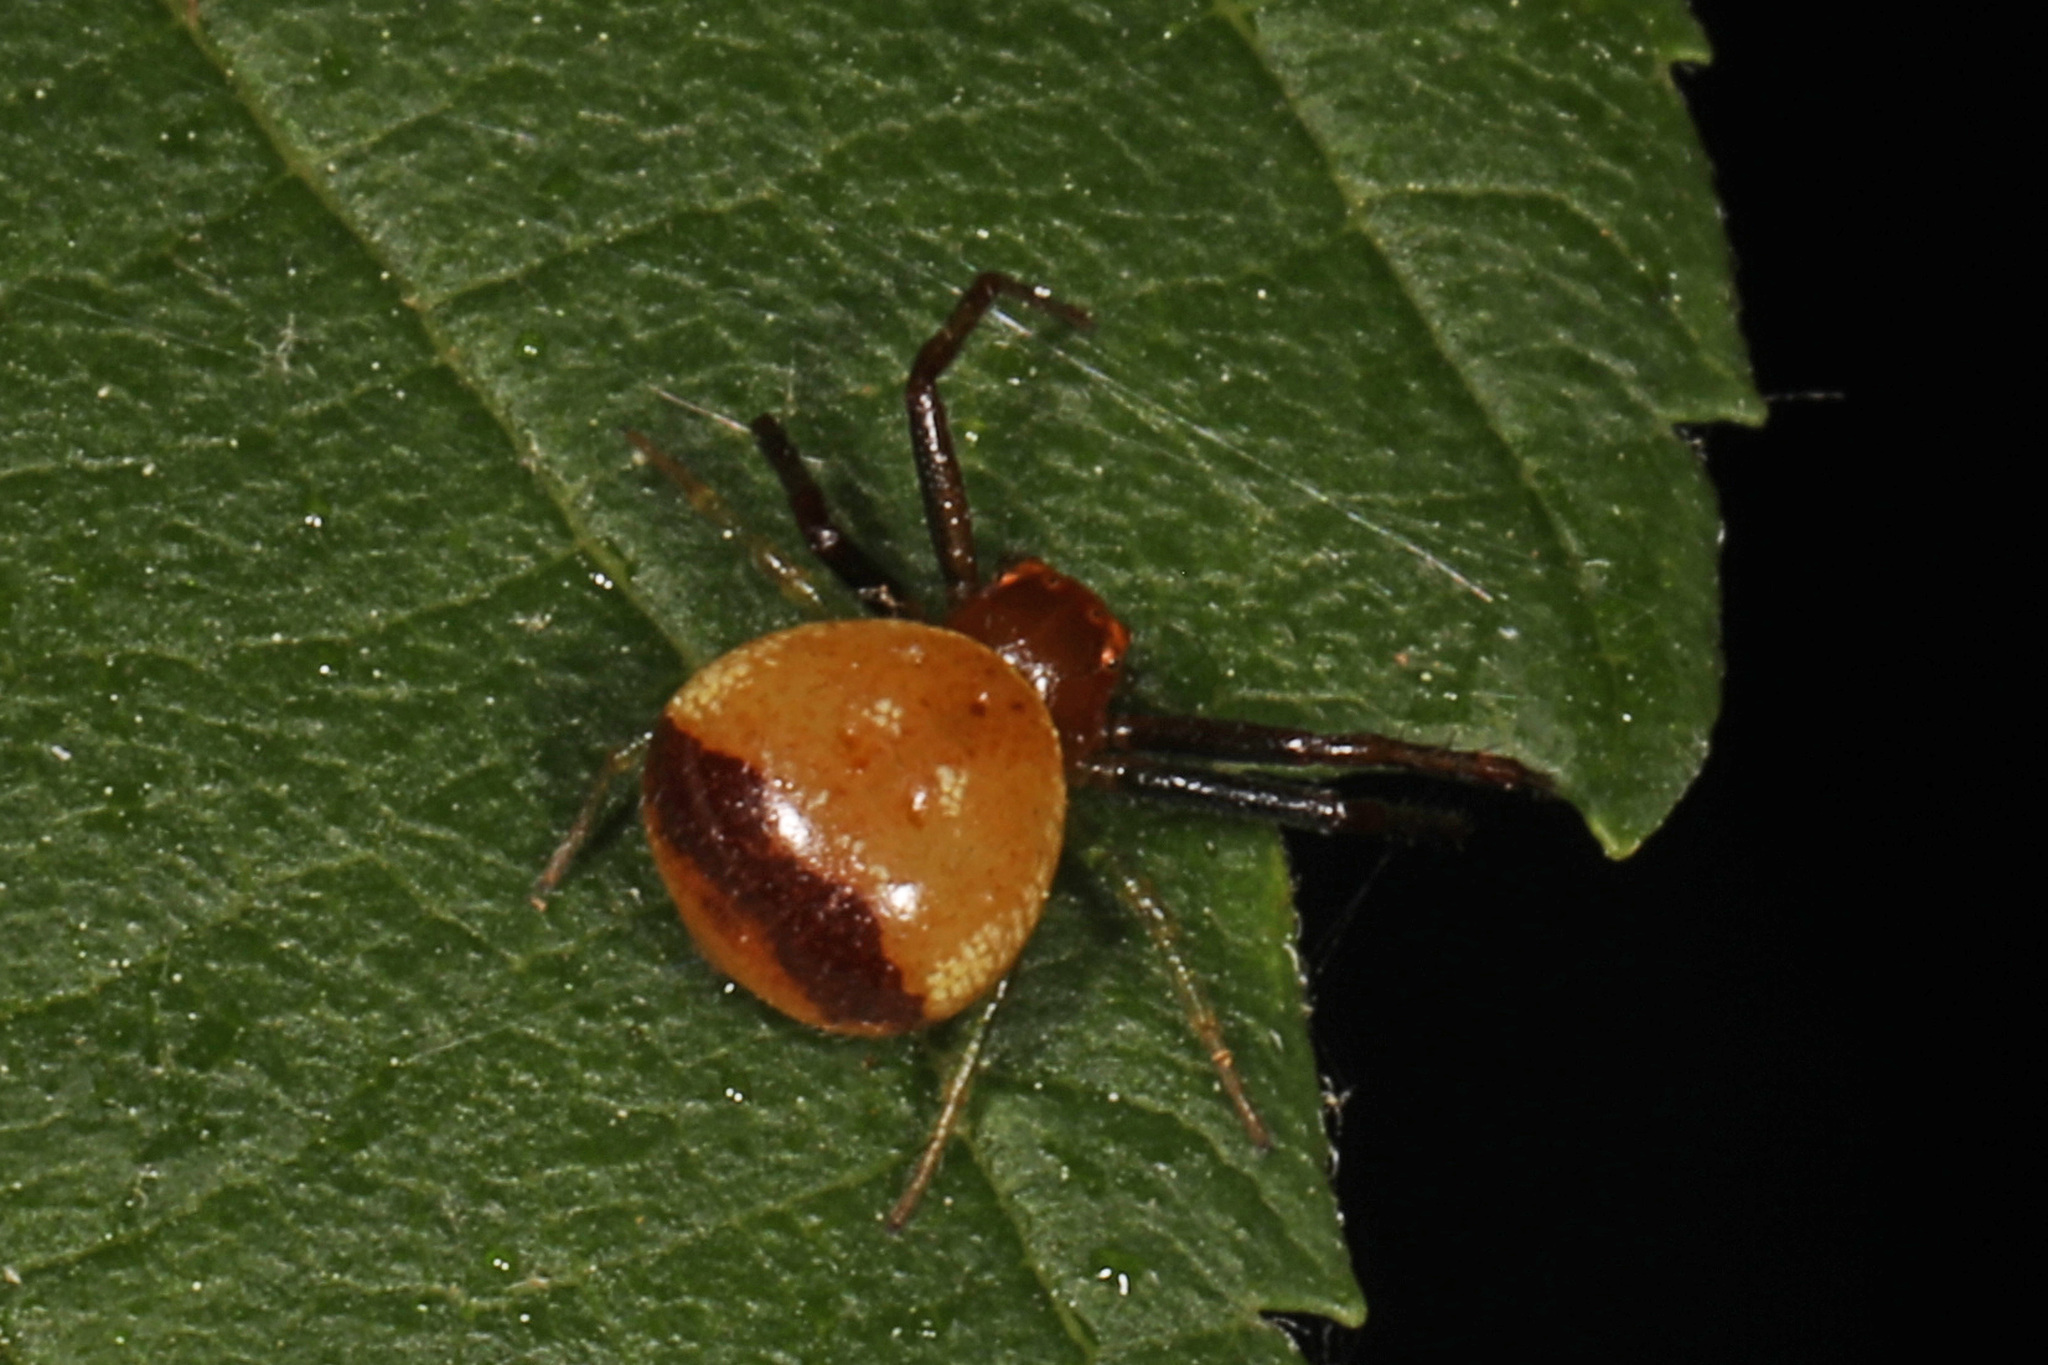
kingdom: Animalia
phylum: Arthropoda
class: Arachnida
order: Araneae
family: Thomisidae
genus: Synema
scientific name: Synema parvulum
